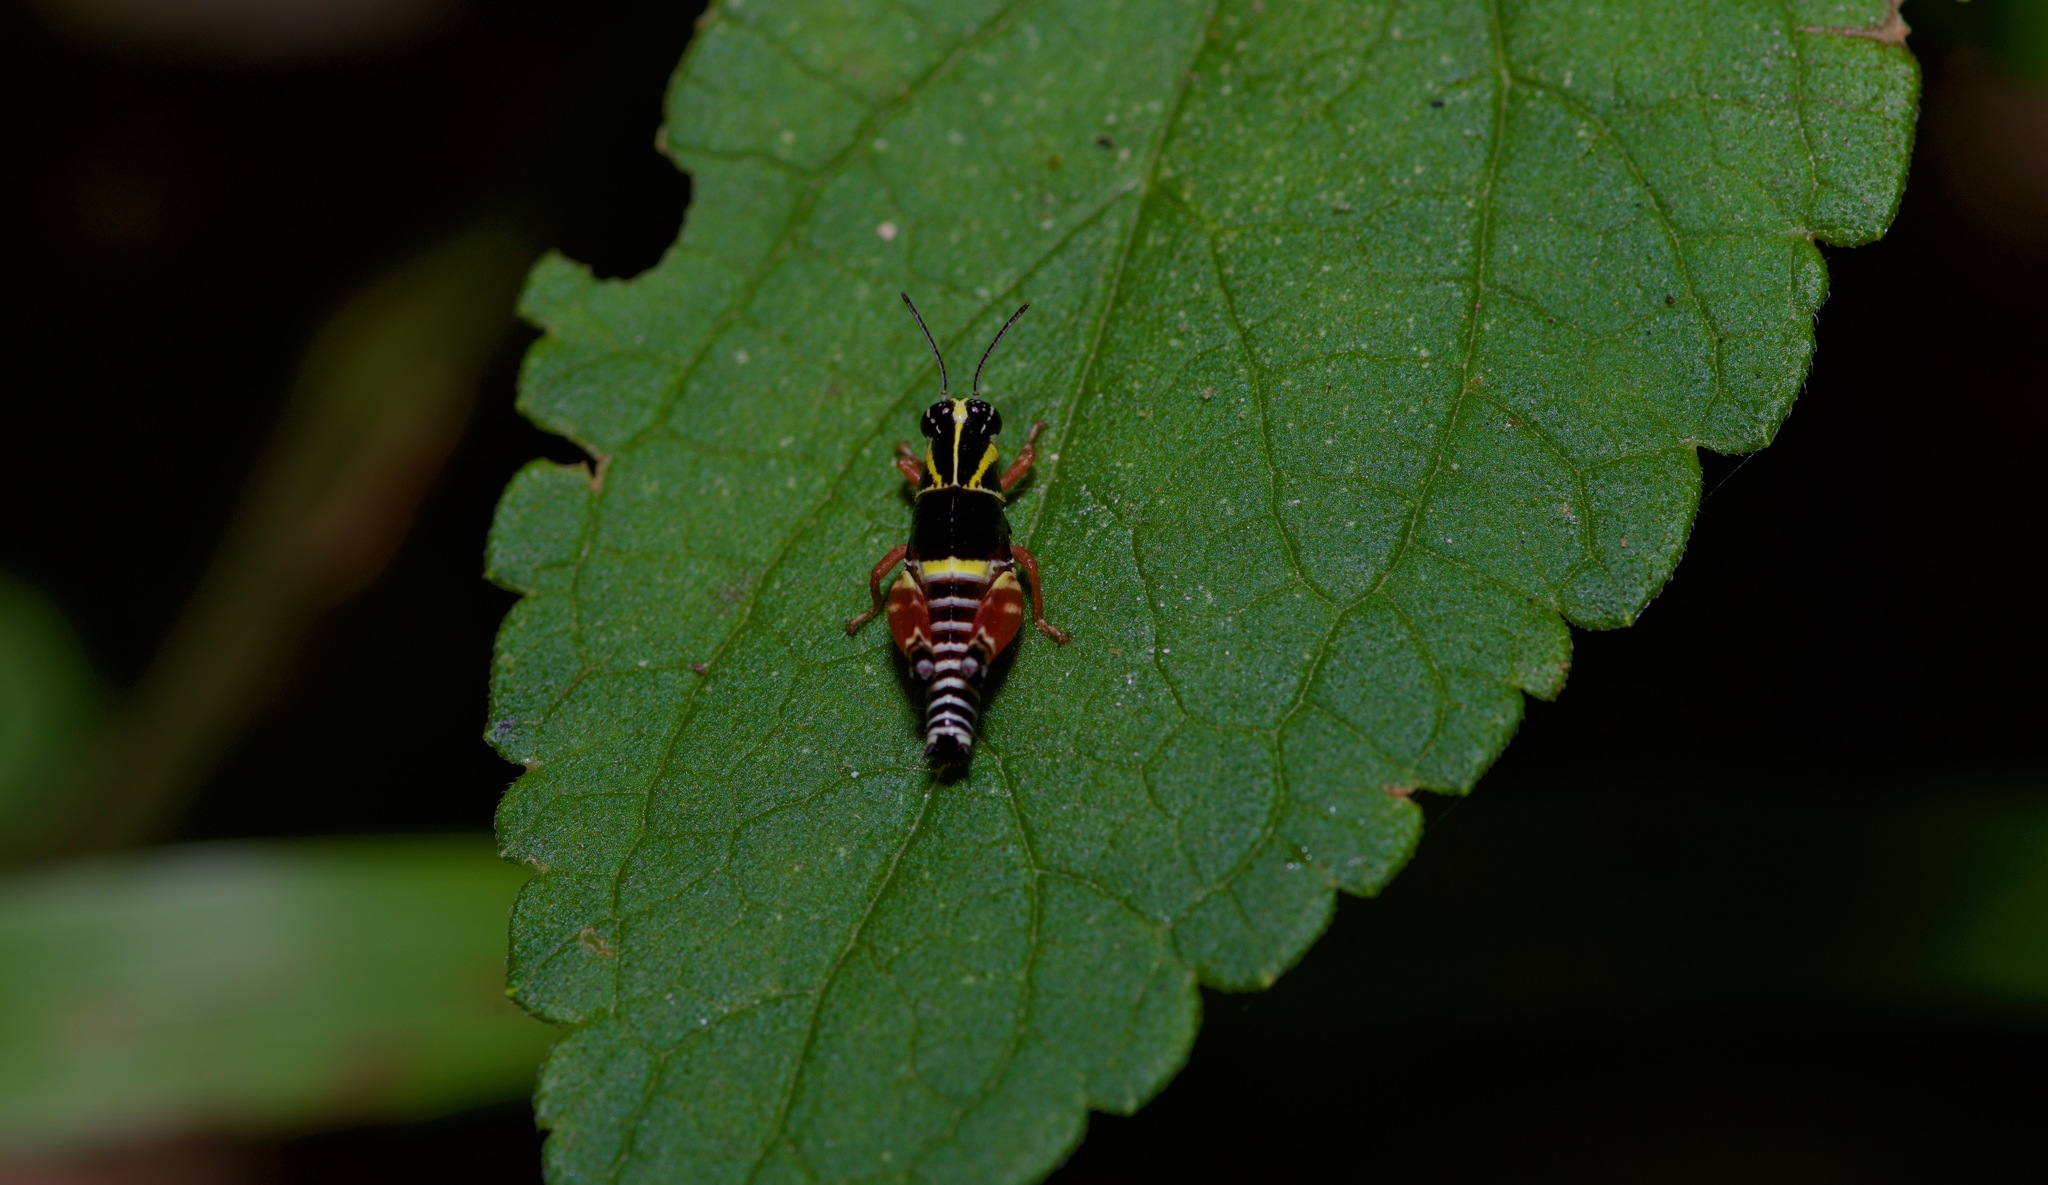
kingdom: Animalia
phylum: Arthropoda
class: Insecta
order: Orthoptera
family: Acrididae
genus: Aidemona
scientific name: Aidemona azteca
